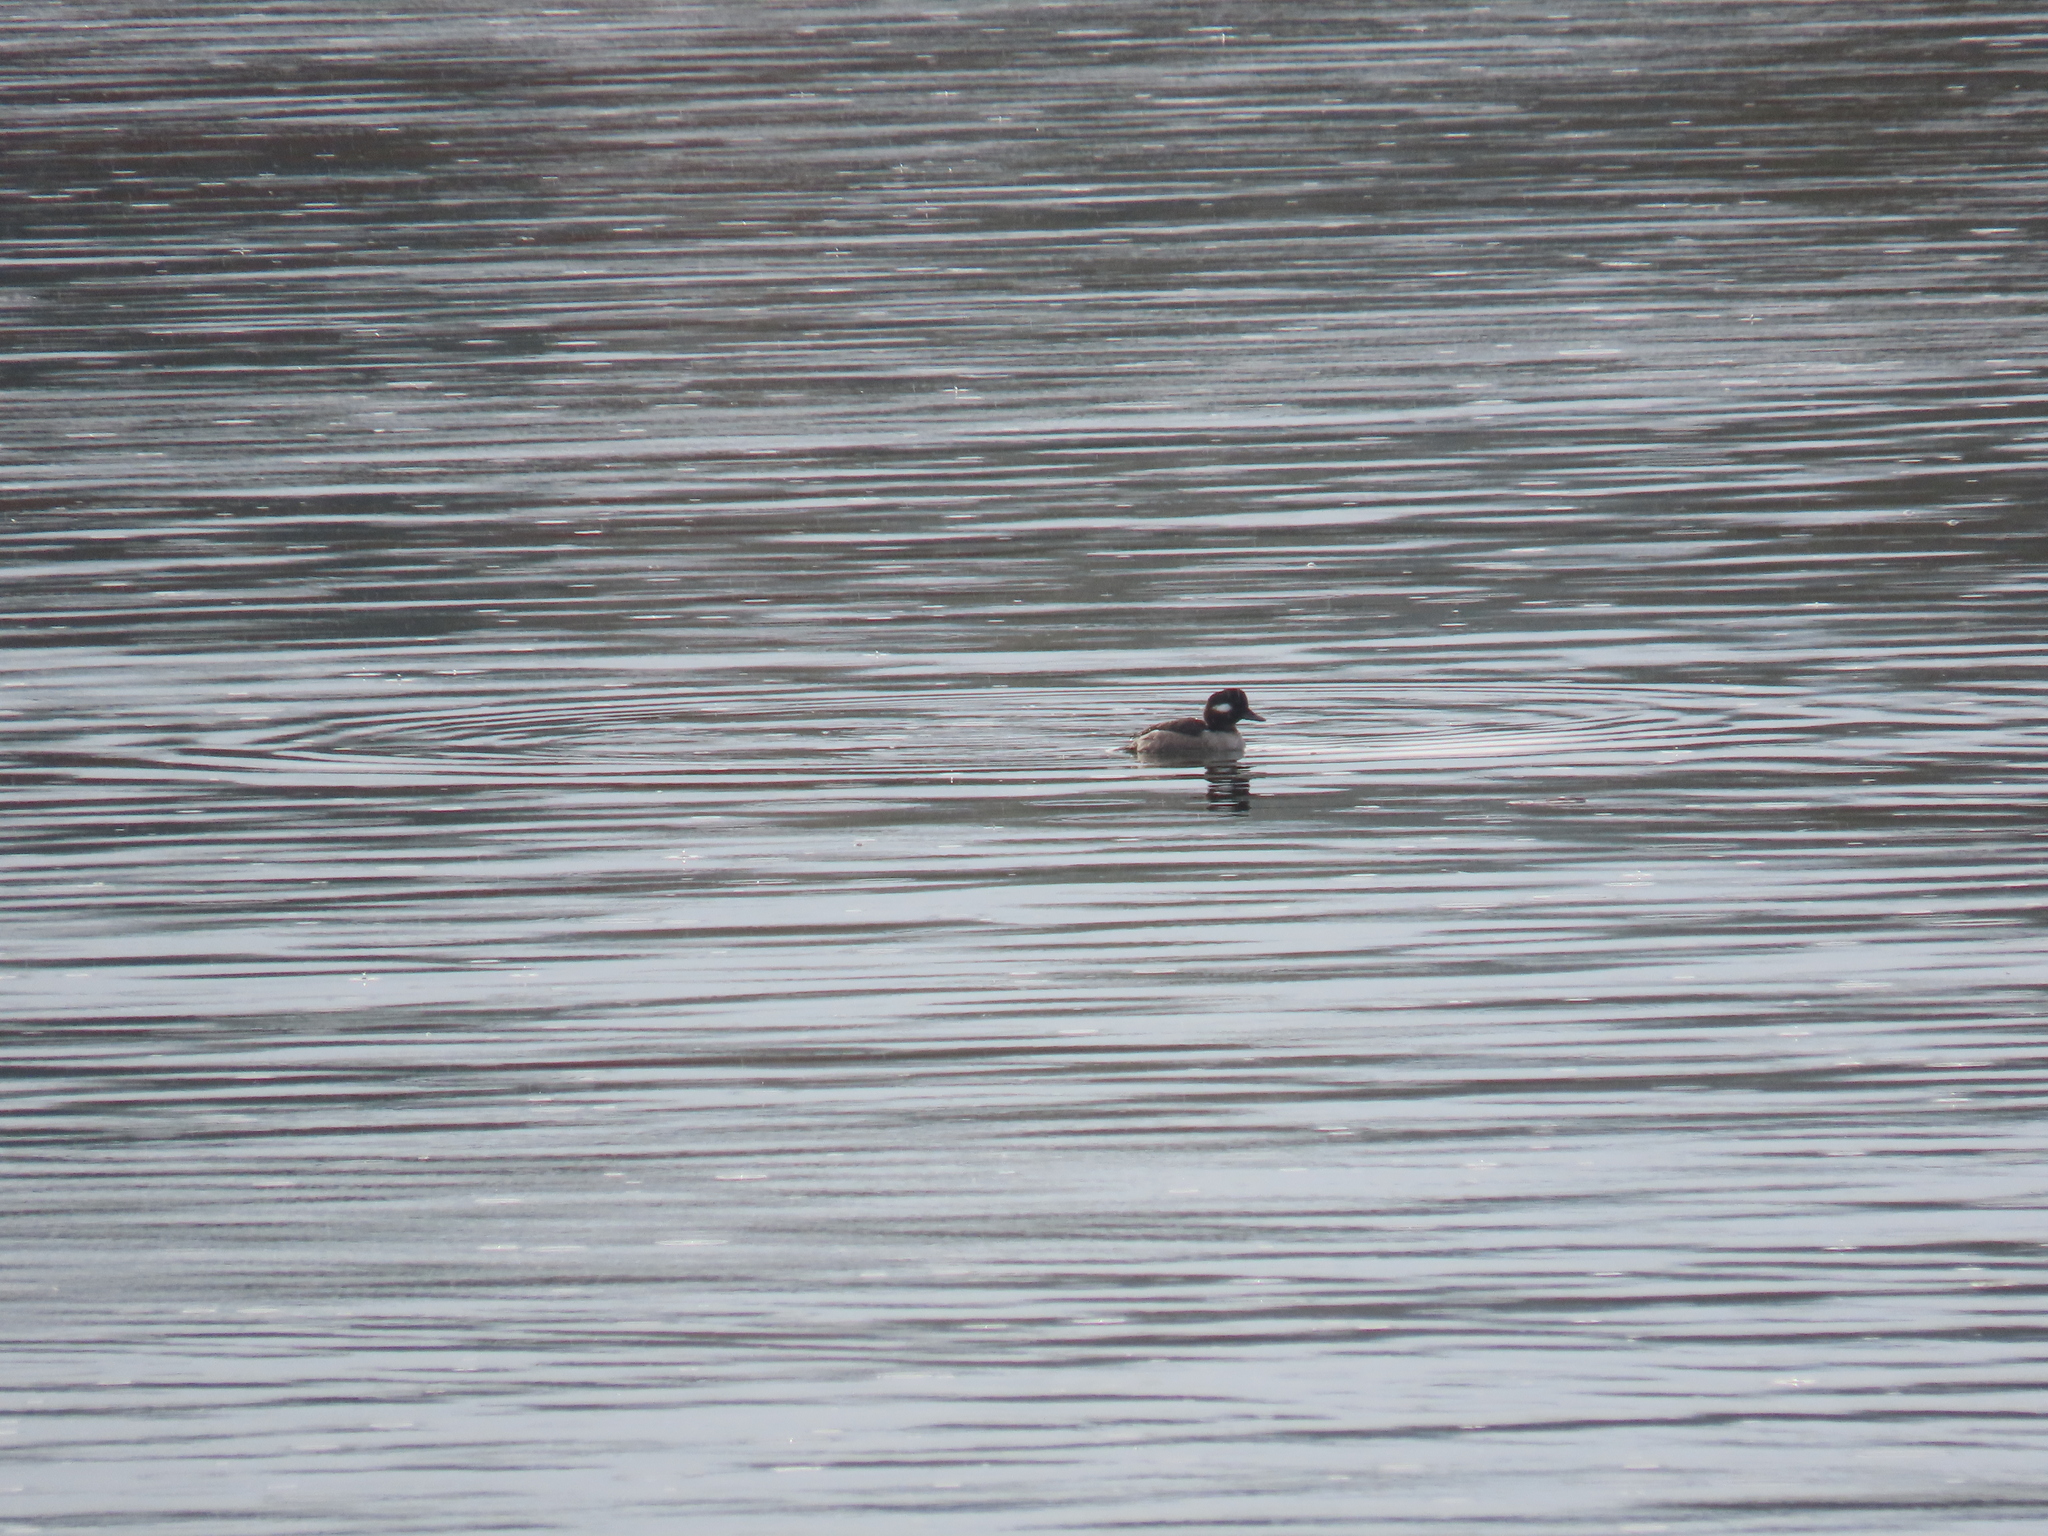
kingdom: Animalia
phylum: Chordata
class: Aves
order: Anseriformes
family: Anatidae
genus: Bucephala
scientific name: Bucephala albeola
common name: Bufflehead
